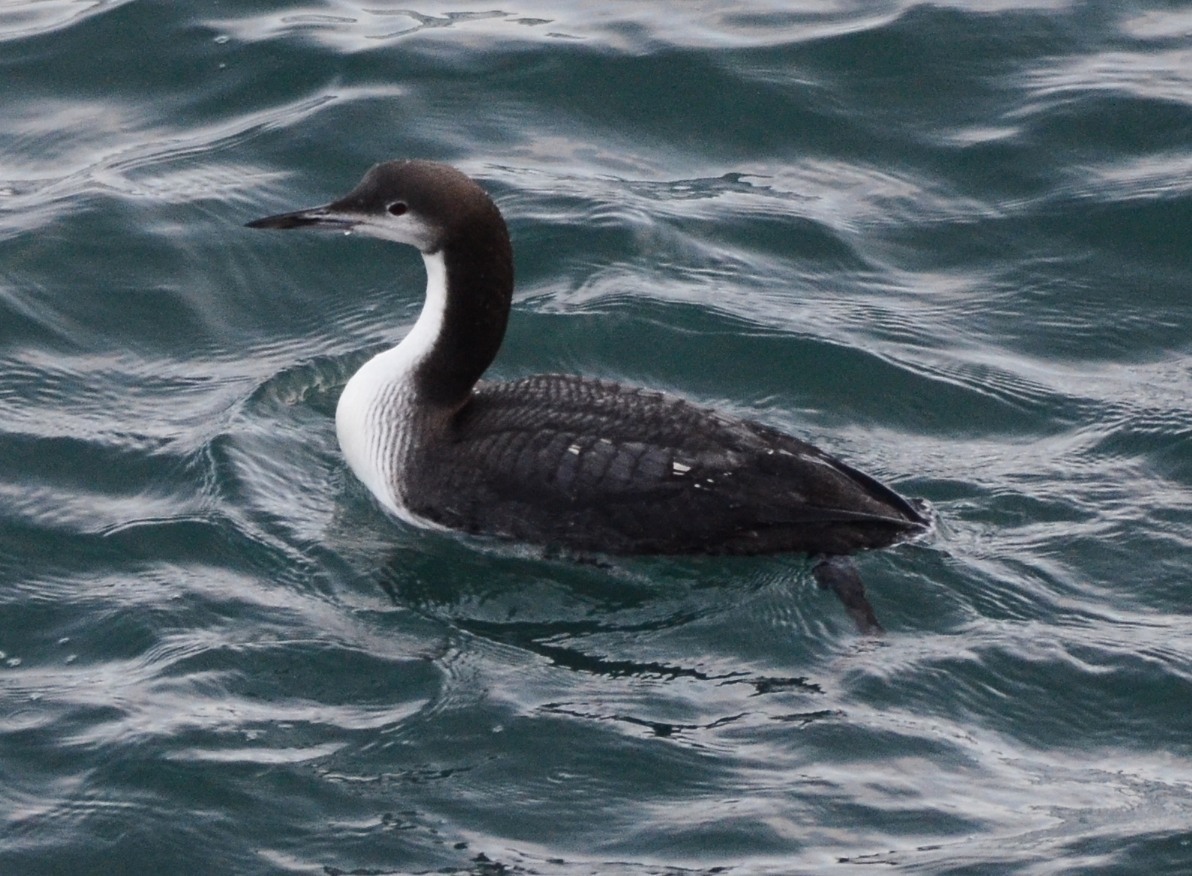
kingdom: Animalia
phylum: Chordata
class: Aves
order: Gaviiformes
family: Gaviidae
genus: Gavia
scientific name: Gavia pacifica
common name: Pacific loon
